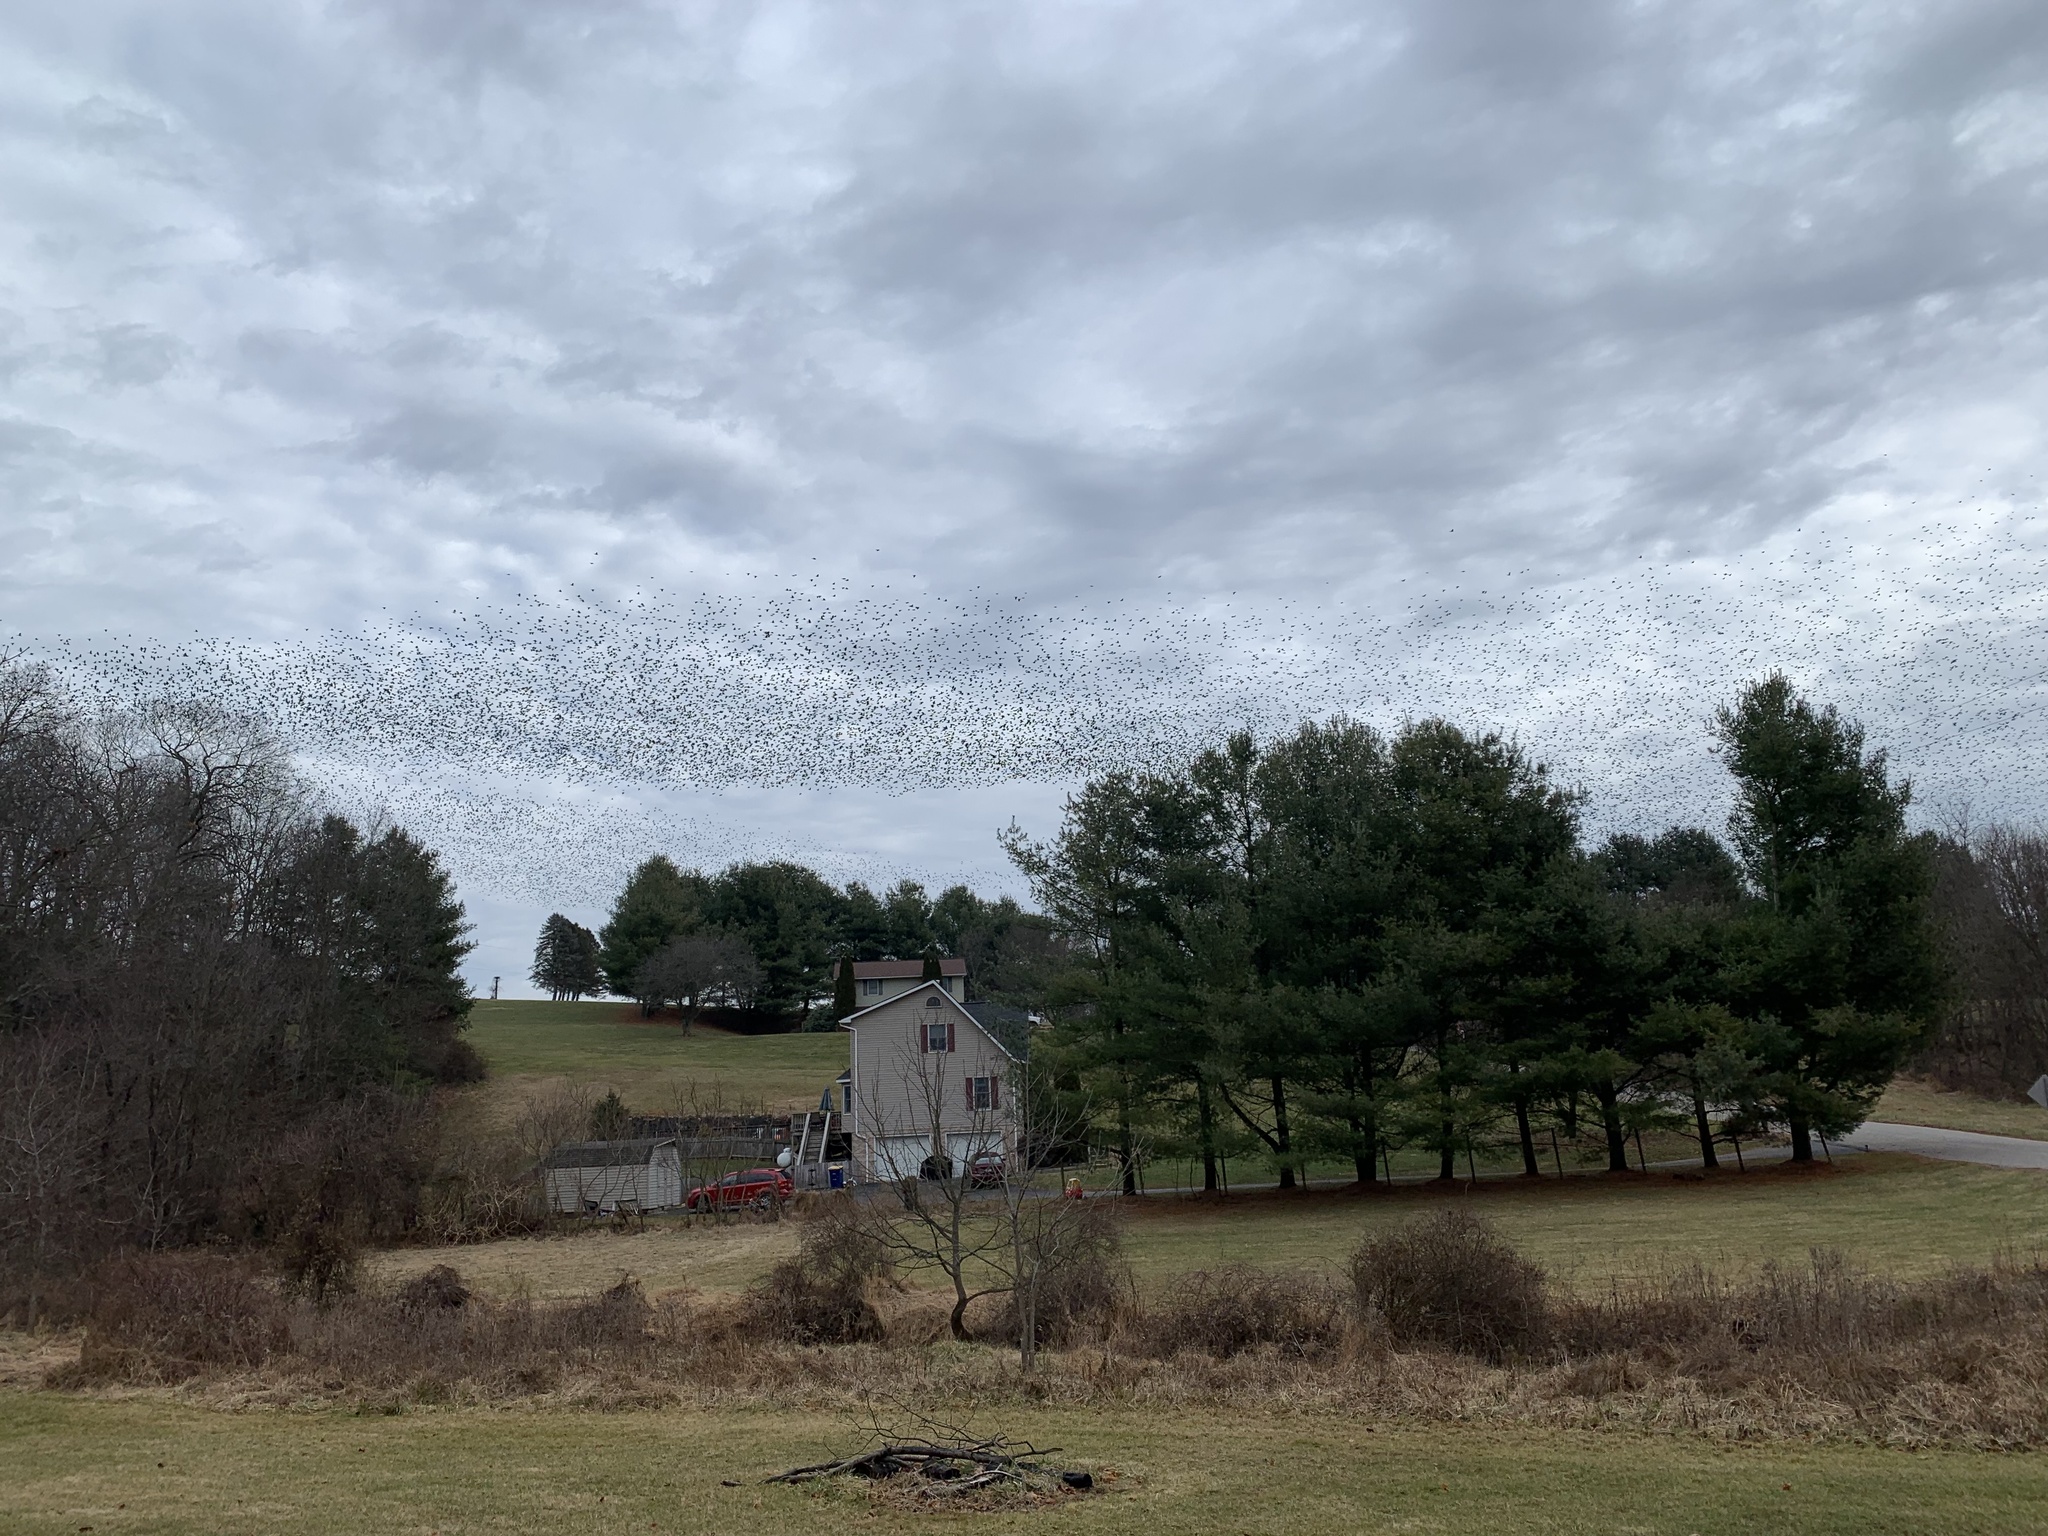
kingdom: Animalia
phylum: Chordata
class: Aves
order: Passeriformes
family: Sturnidae
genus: Sturnus
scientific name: Sturnus vulgaris
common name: Common starling
